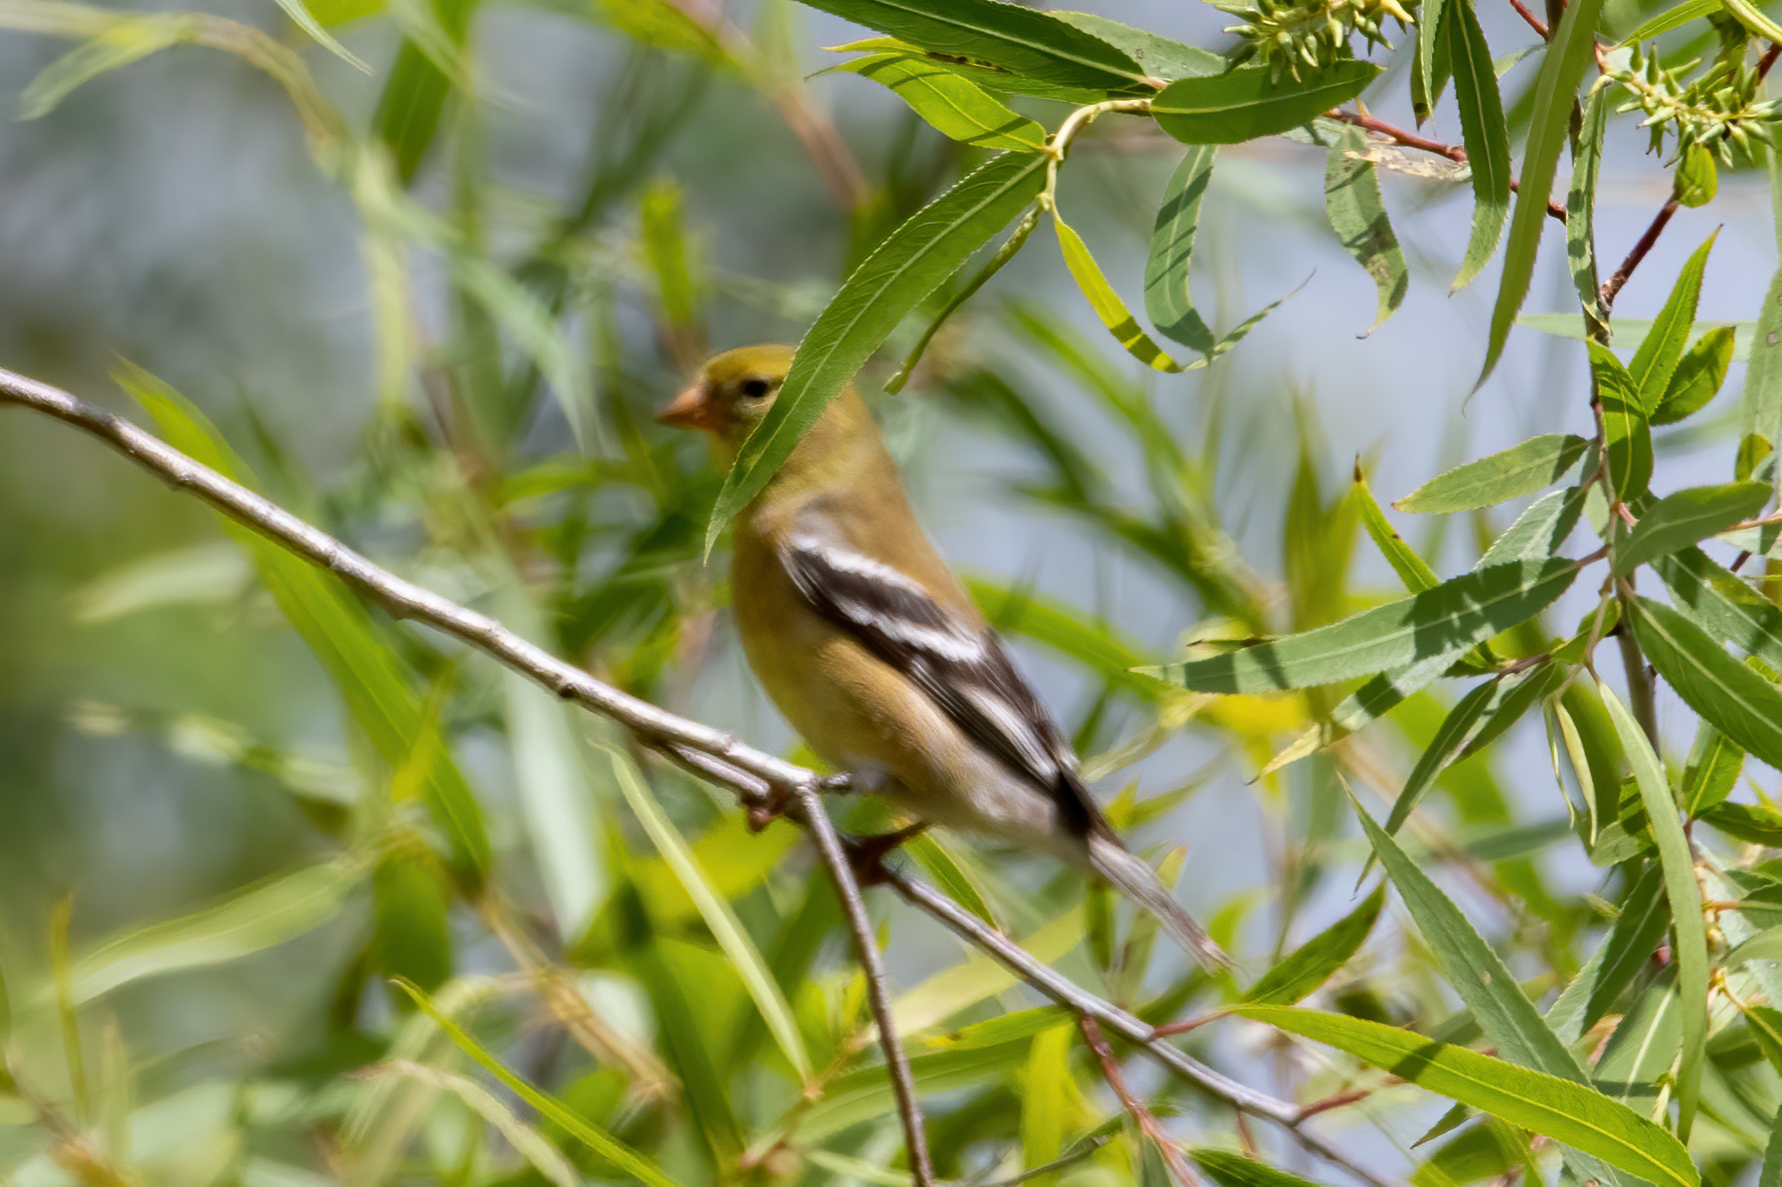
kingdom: Animalia
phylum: Chordata
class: Aves
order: Passeriformes
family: Fringillidae
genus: Spinus
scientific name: Spinus tristis
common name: American goldfinch
